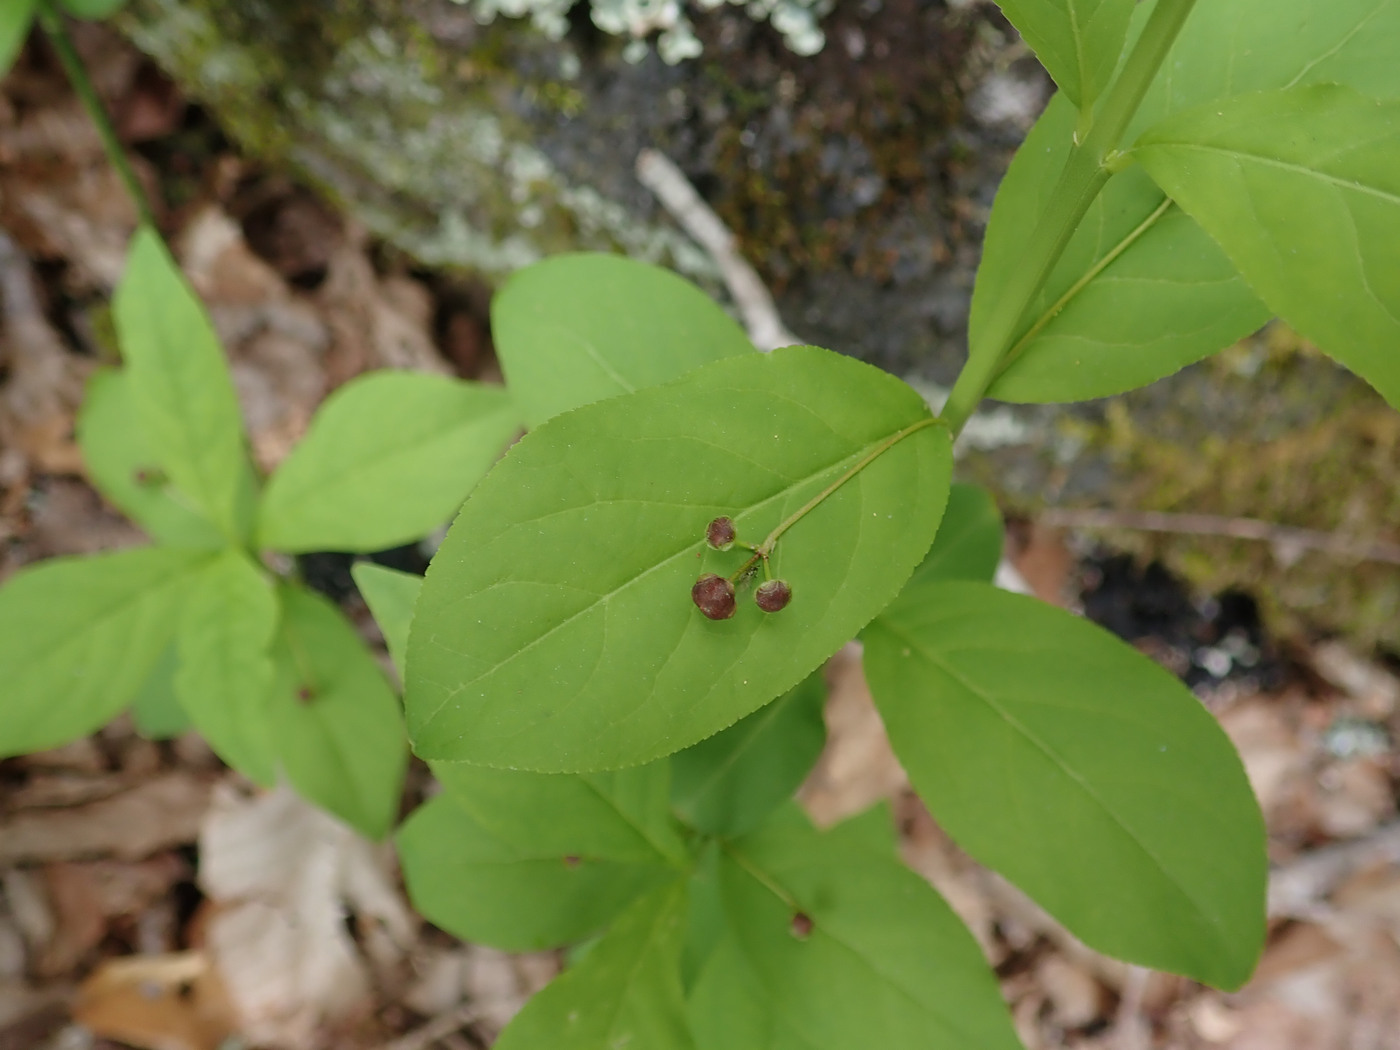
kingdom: Plantae
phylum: Tracheophyta
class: Magnoliopsida
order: Celastrales
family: Celastraceae
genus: Euonymus
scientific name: Euonymus obovatus
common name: Running strawberry-bush
